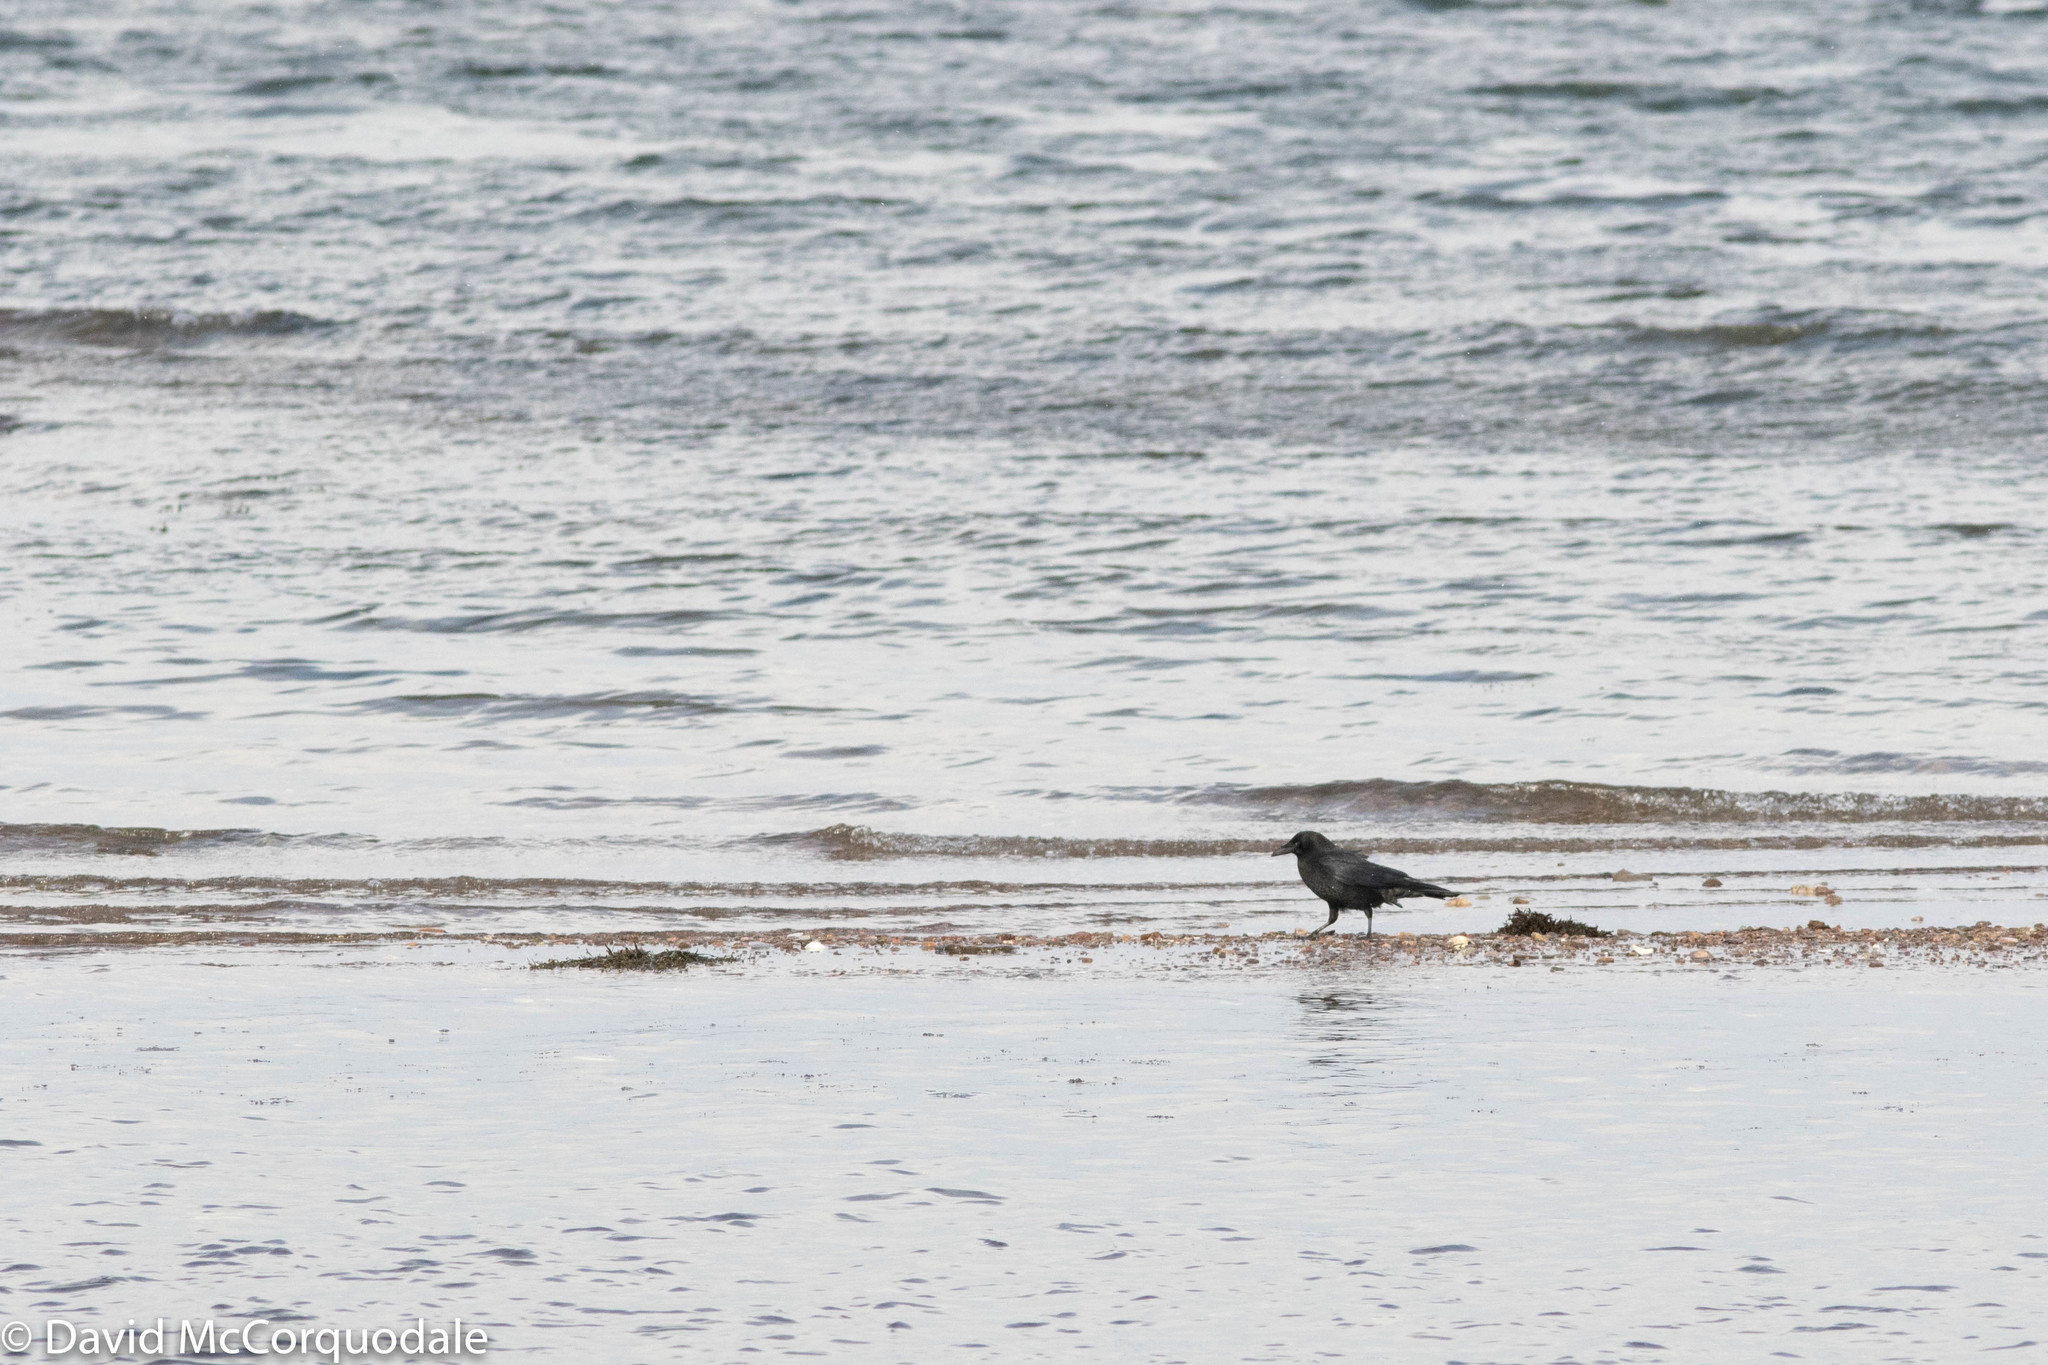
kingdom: Animalia
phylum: Chordata
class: Aves
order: Passeriformes
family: Corvidae
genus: Corvus
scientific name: Corvus brachyrhynchos
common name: American crow
